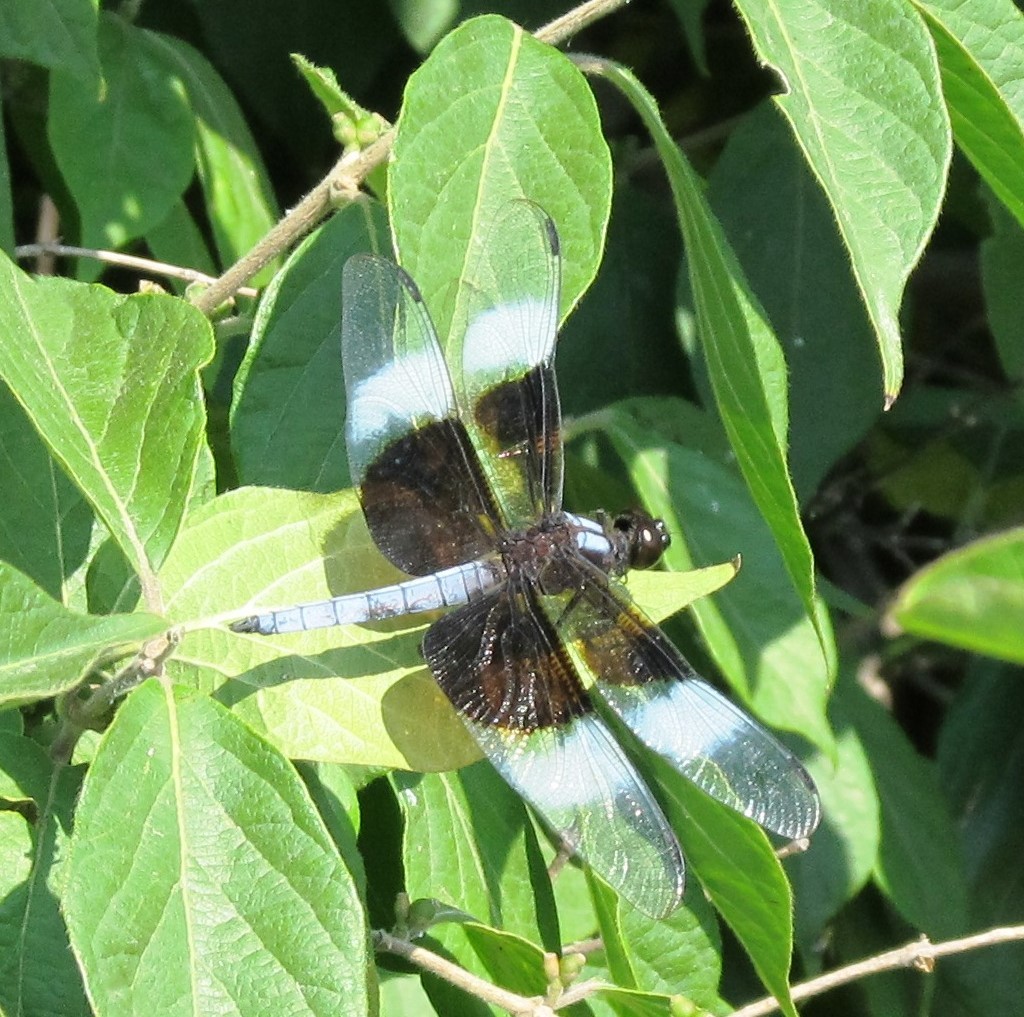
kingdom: Animalia
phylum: Arthropoda
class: Insecta
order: Odonata
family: Libellulidae
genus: Libellula
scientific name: Libellula luctuosa
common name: Widow skimmer
